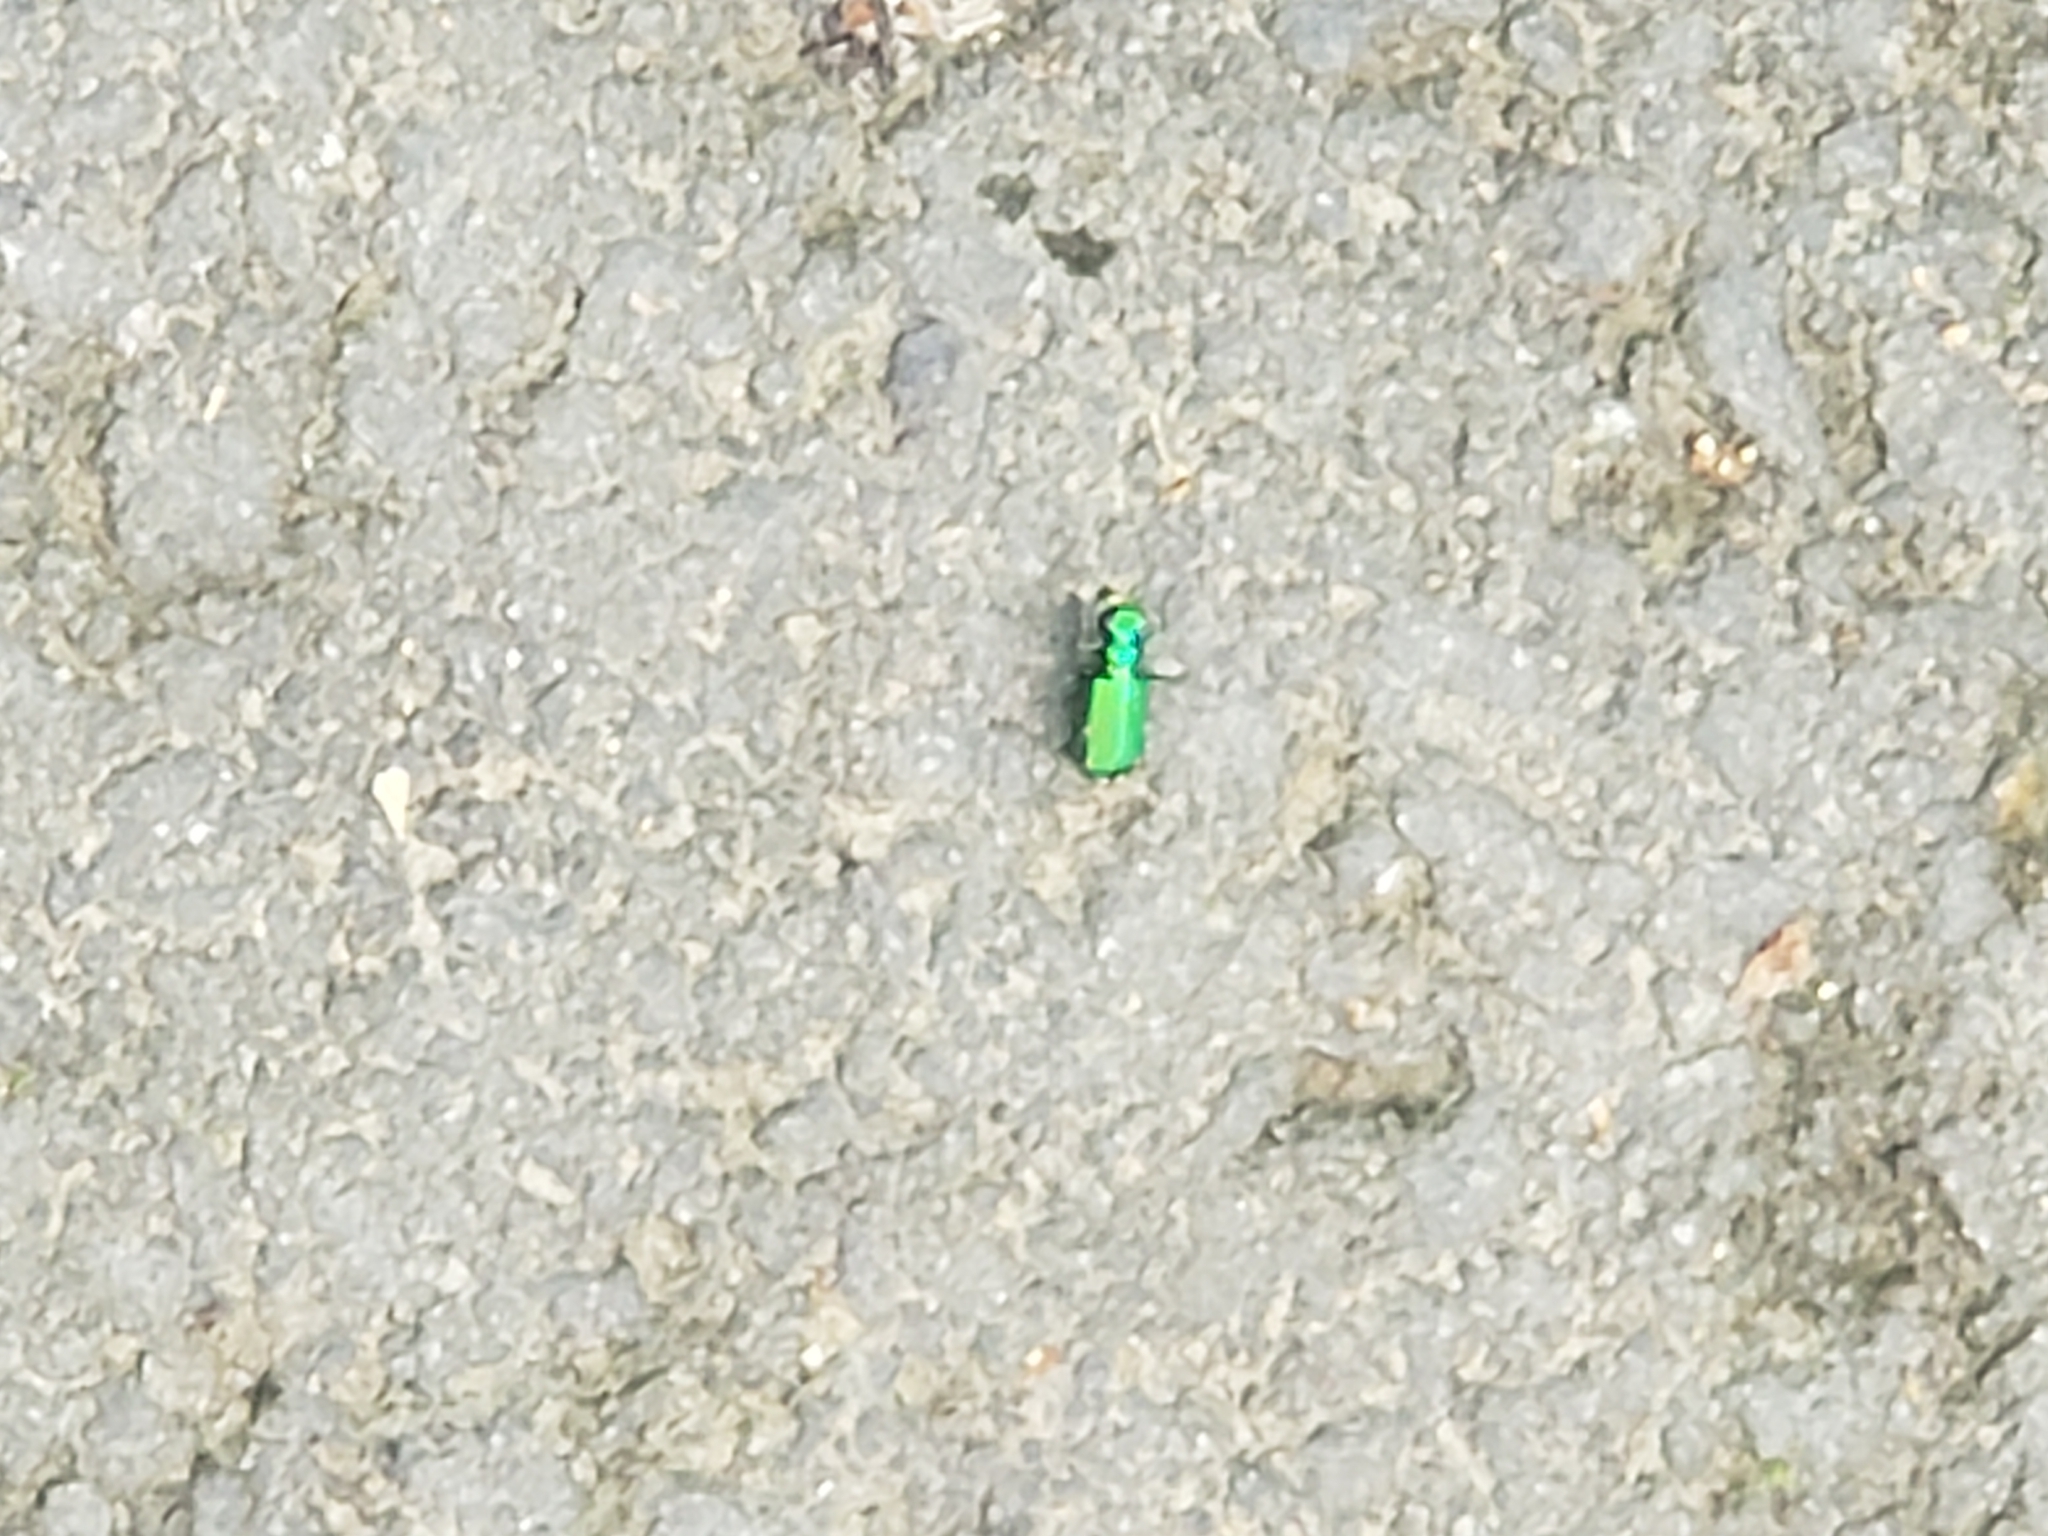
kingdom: Animalia
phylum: Arthropoda
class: Insecta
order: Coleoptera
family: Carabidae
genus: Cicindela
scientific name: Cicindela sexguttata
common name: Six-spotted tiger beetle
